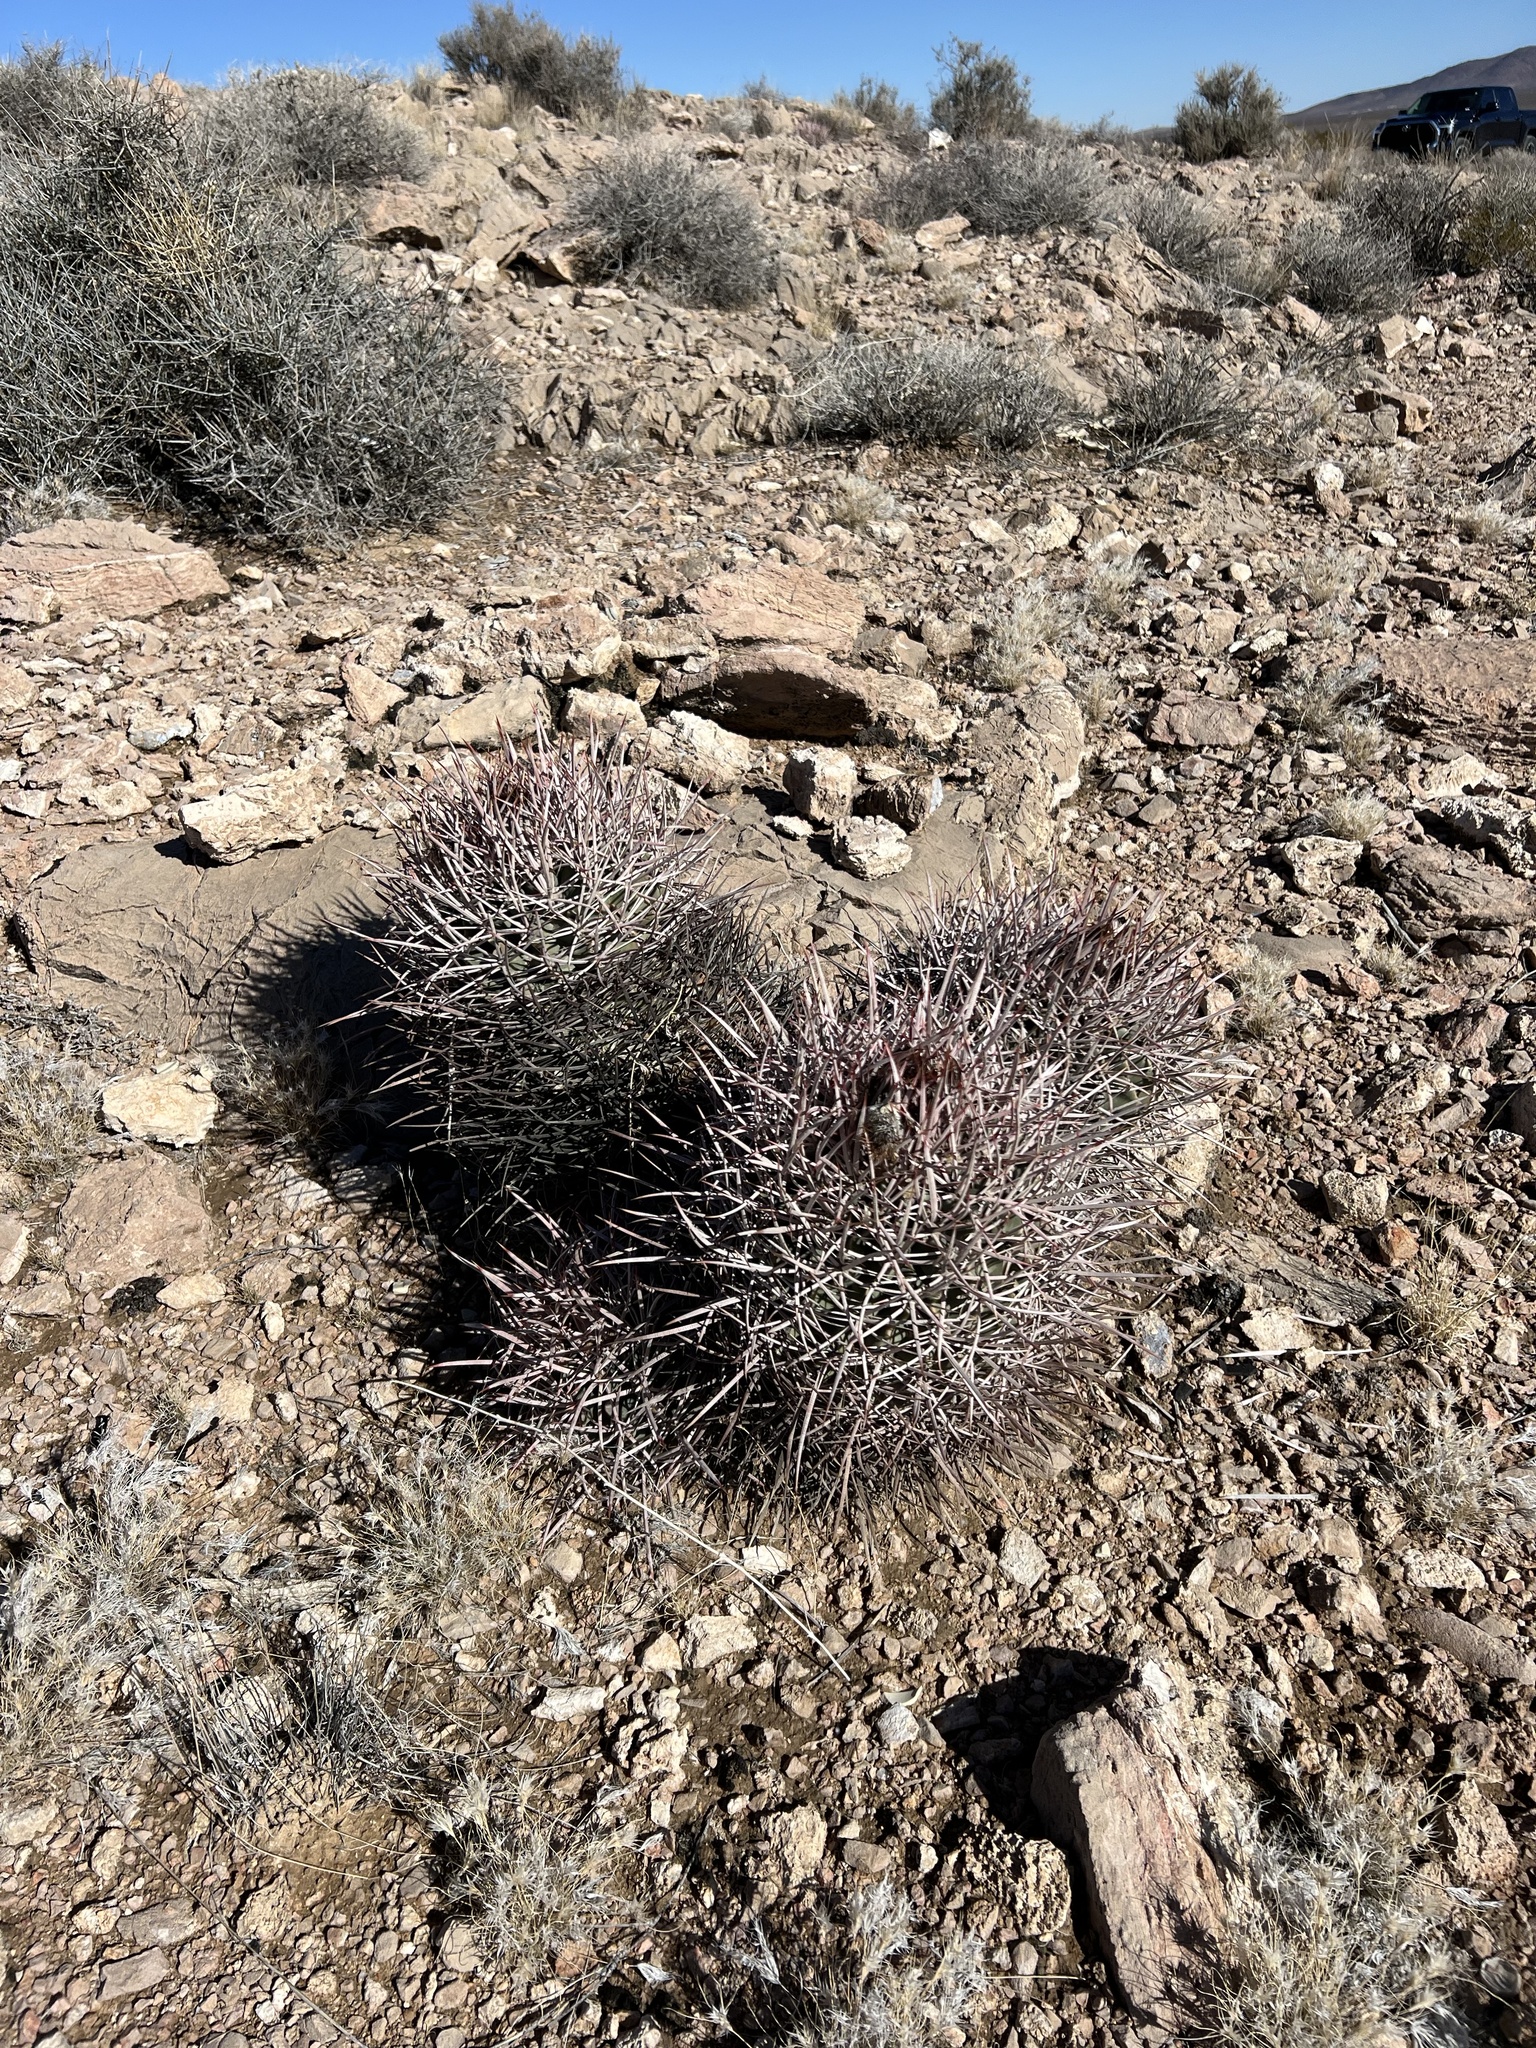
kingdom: Plantae
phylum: Tracheophyta
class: Magnoliopsida
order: Caryophyllales
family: Cactaceae
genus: Echinocactus
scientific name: Echinocactus polycephalus
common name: Cottontop cactus
